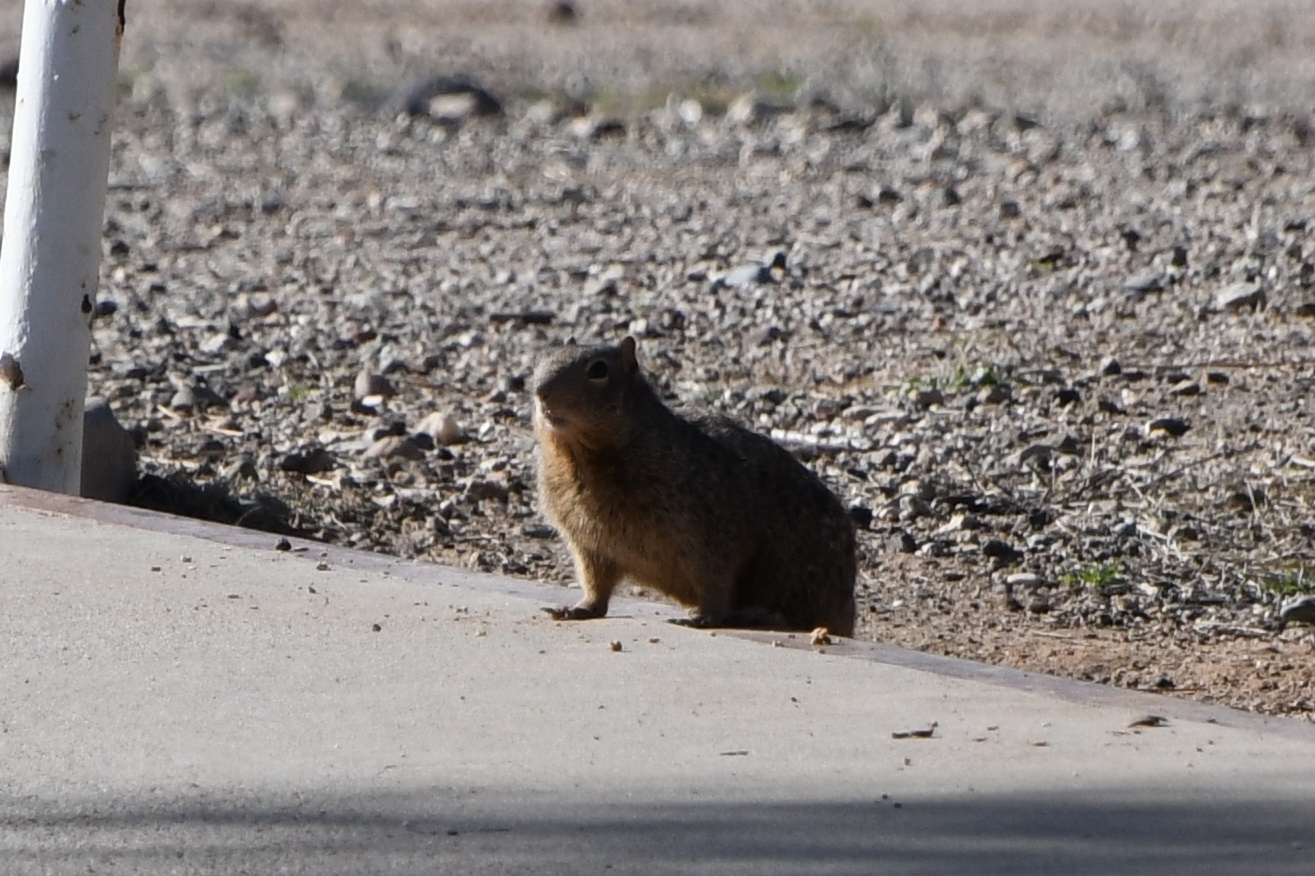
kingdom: Animalia
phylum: Chordata
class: Mammalia
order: Rodentia
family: Sciuridae
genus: Otospermophilus
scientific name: Otospermophilus variegatus
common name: Rock squirrel
